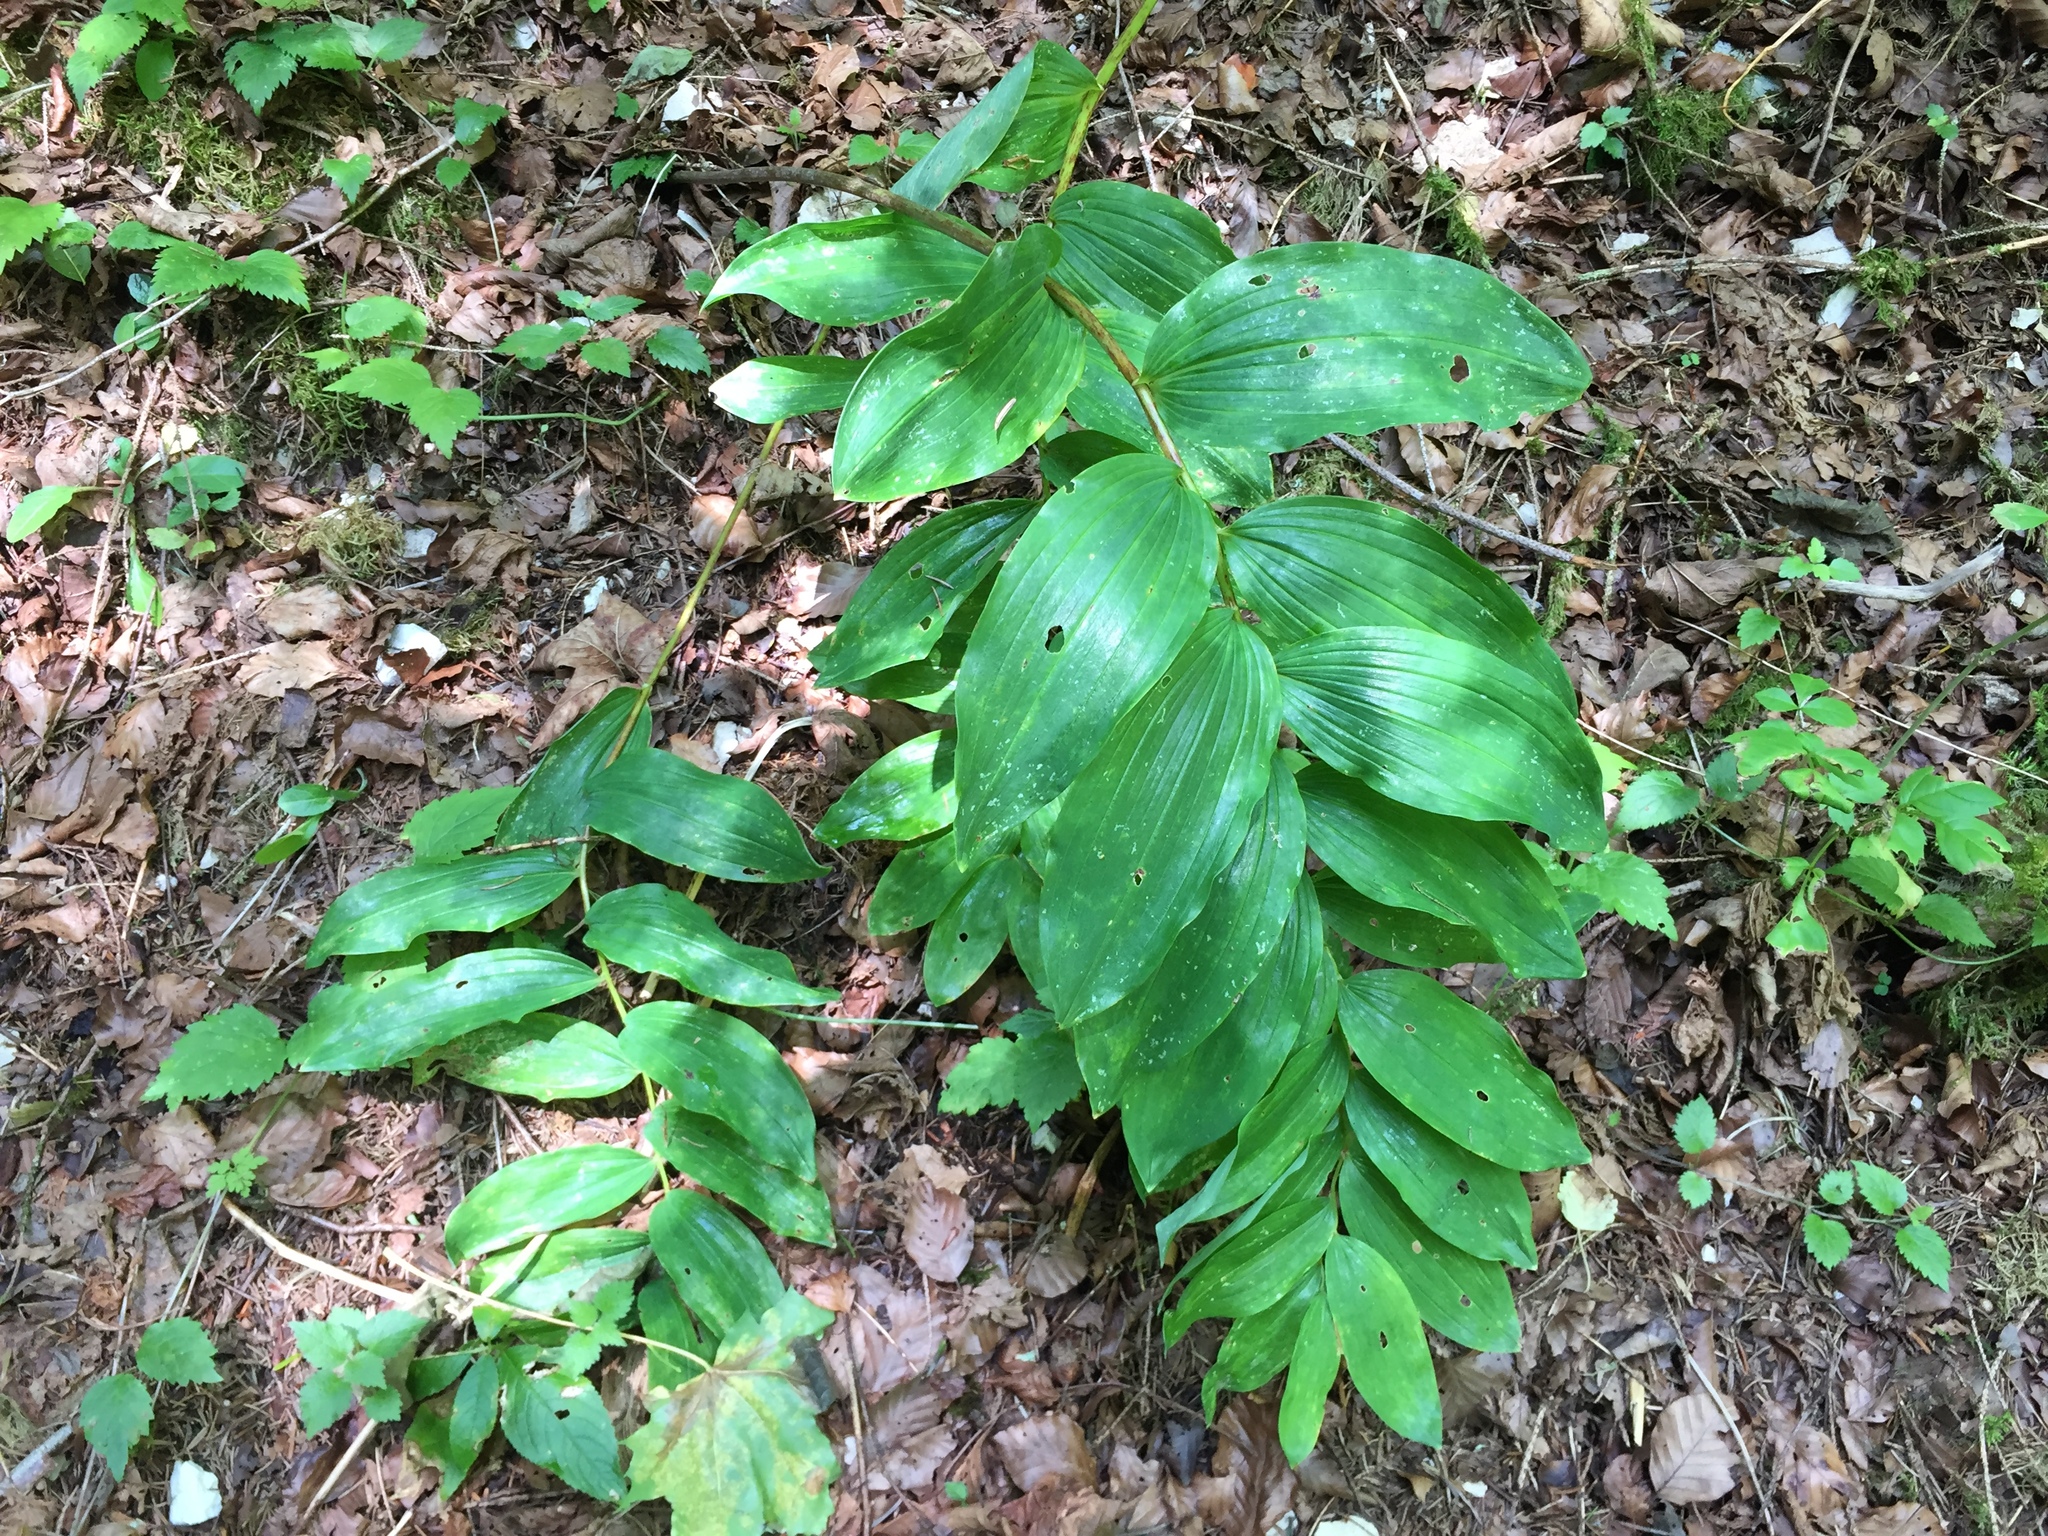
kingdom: Plantae
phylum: Tracheophyta
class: Liliopsida
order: Asparagales
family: Asparagaceae
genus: Polygonatum
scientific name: Polygonatum multiflorum
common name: Solomon's-seal
